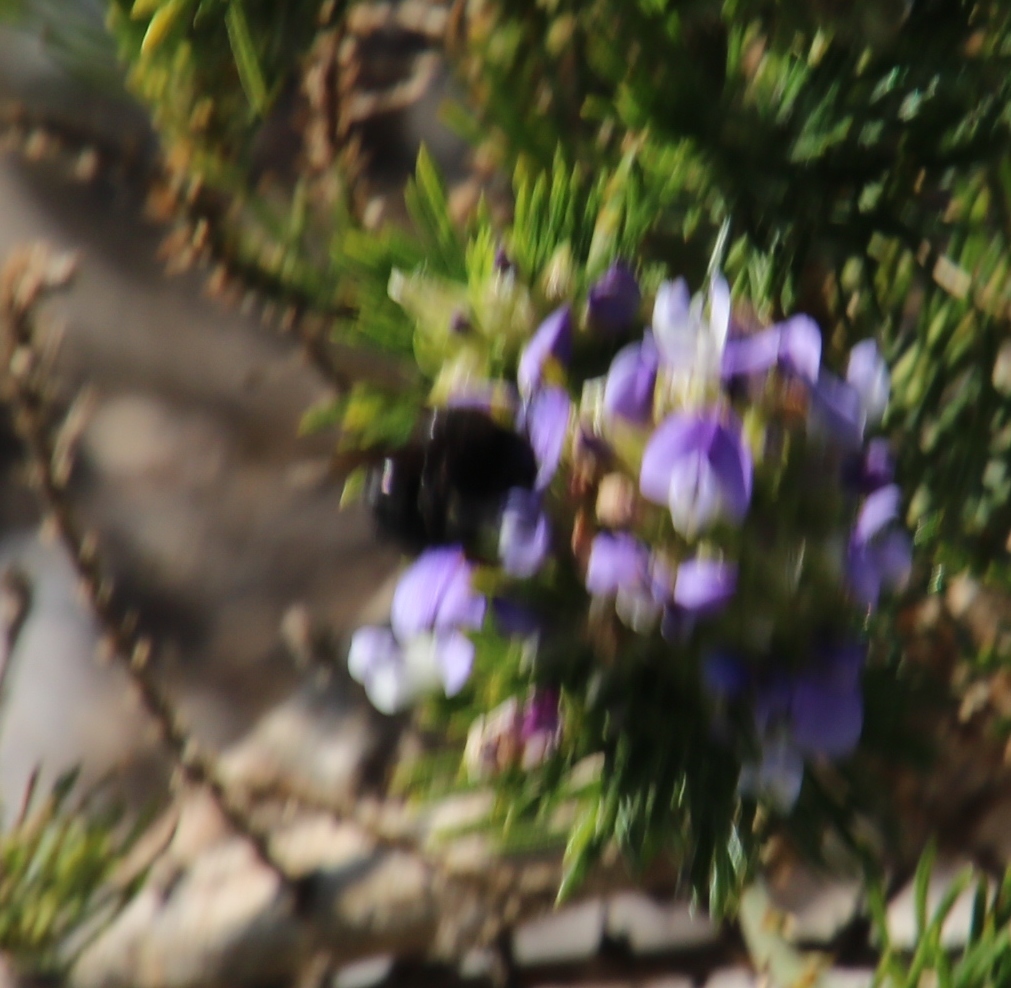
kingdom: Plantae
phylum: Tracheophyta
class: Magnoliopsida
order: Fabales
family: Fabaceae
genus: Psoralea
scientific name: Psoralea pinnata
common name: African scurfpea
